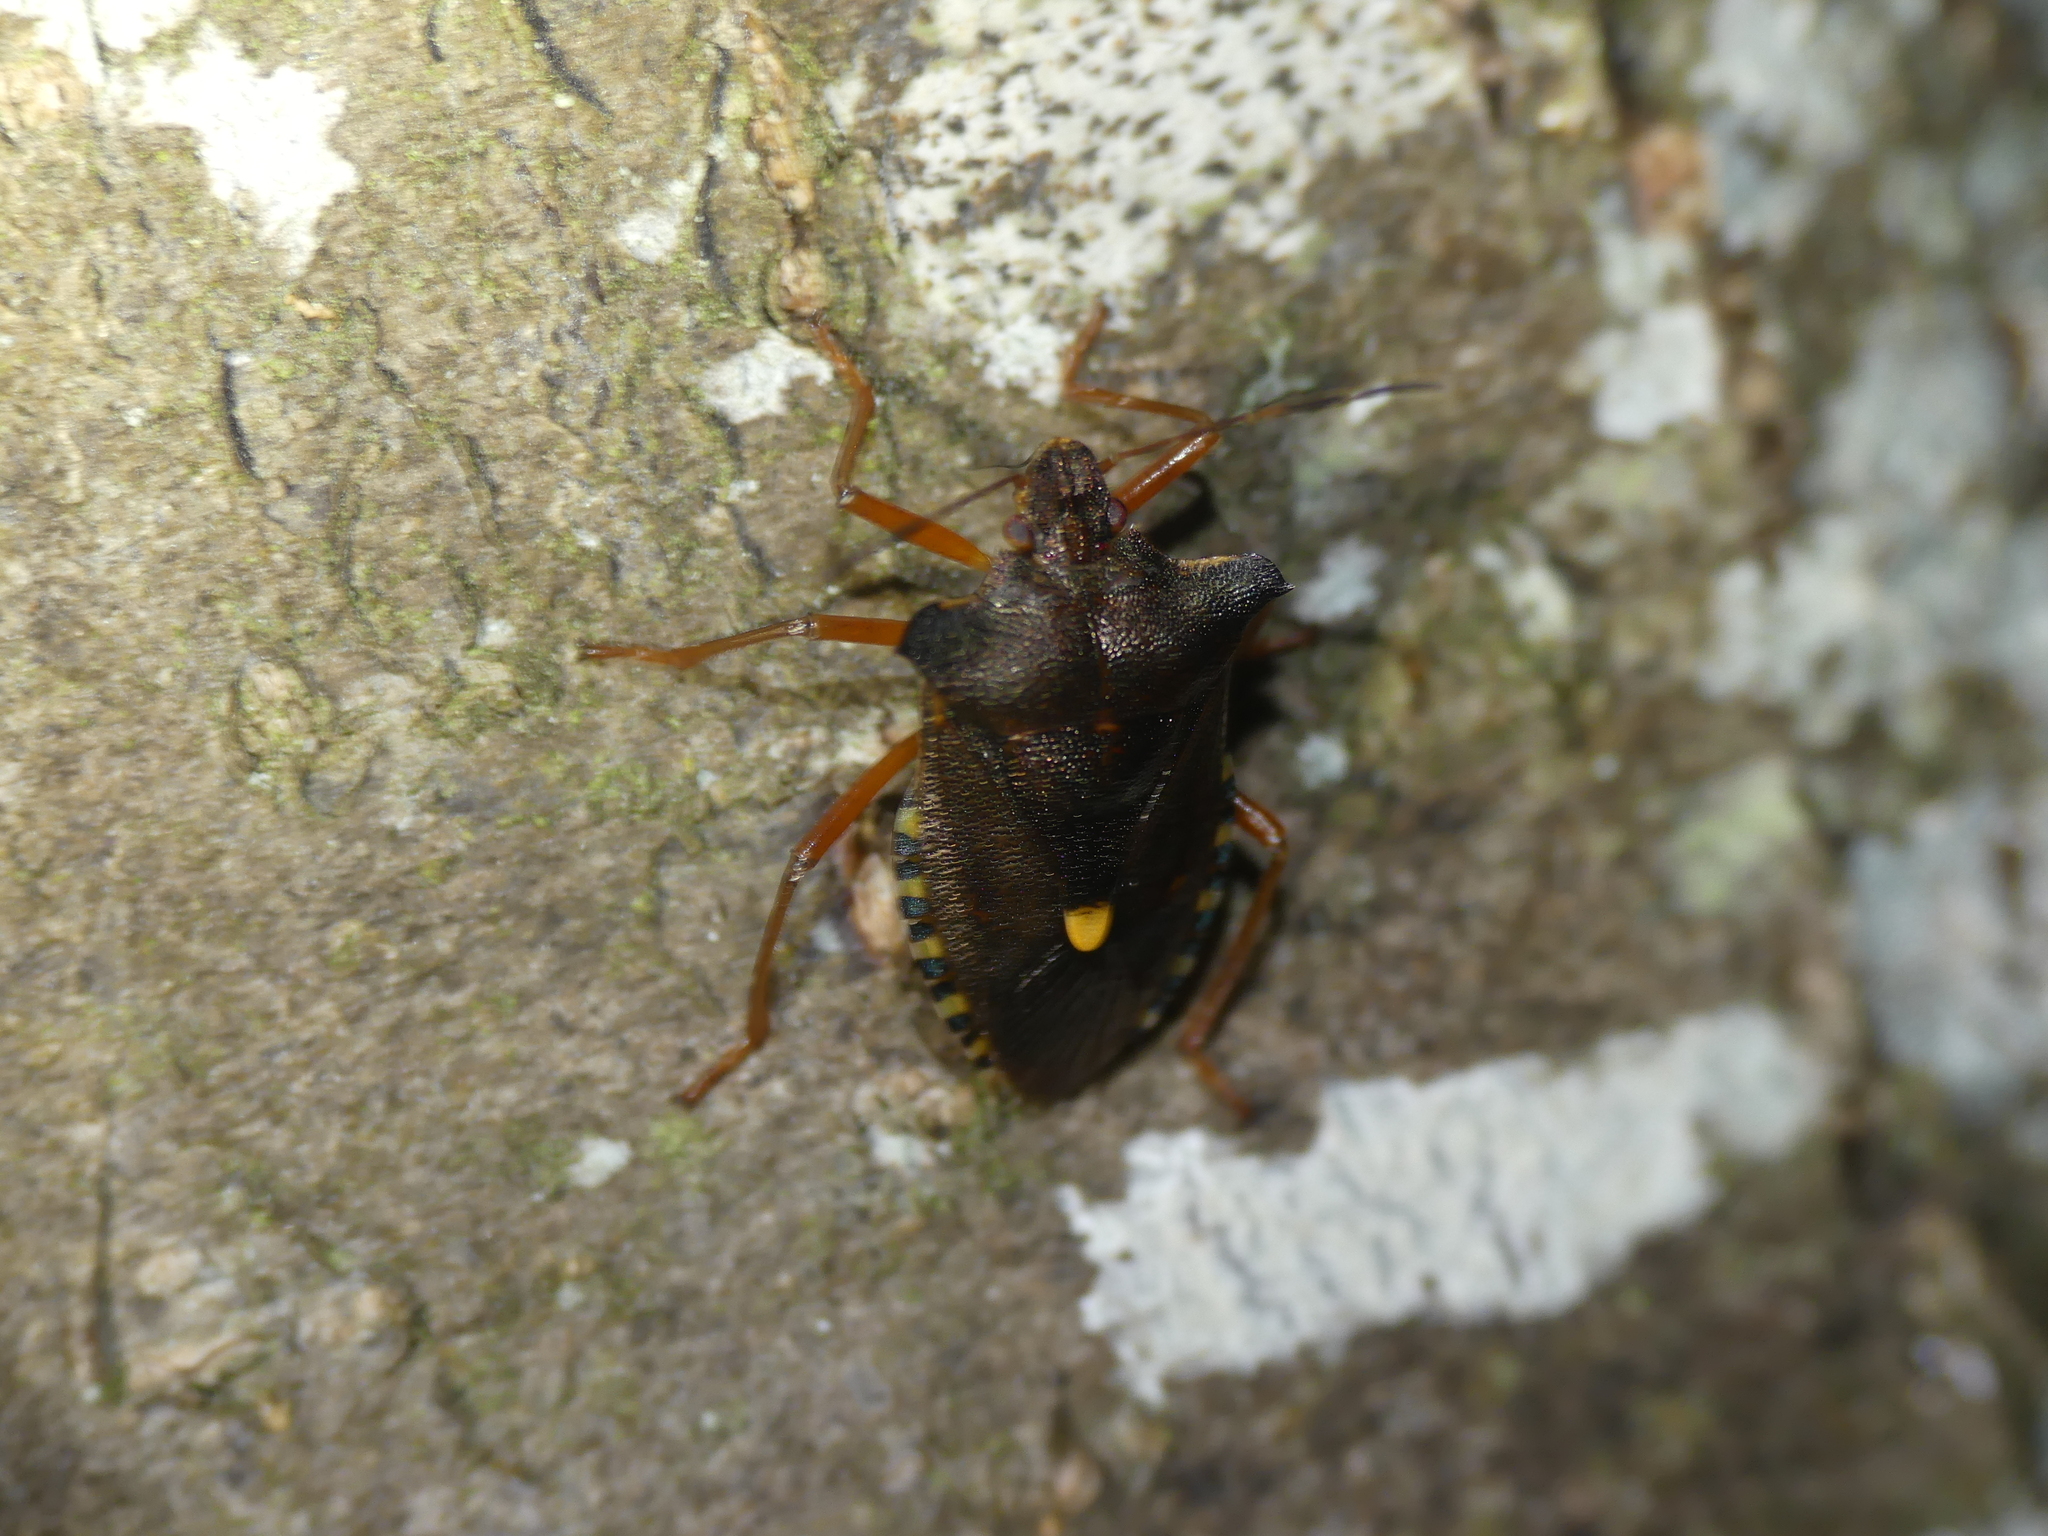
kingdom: Animalia
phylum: Arthropoda
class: Insecta
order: Hemiptera
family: Pentatomidae
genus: Pentatoma
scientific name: Pentatoma rufipes
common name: Forest bug
